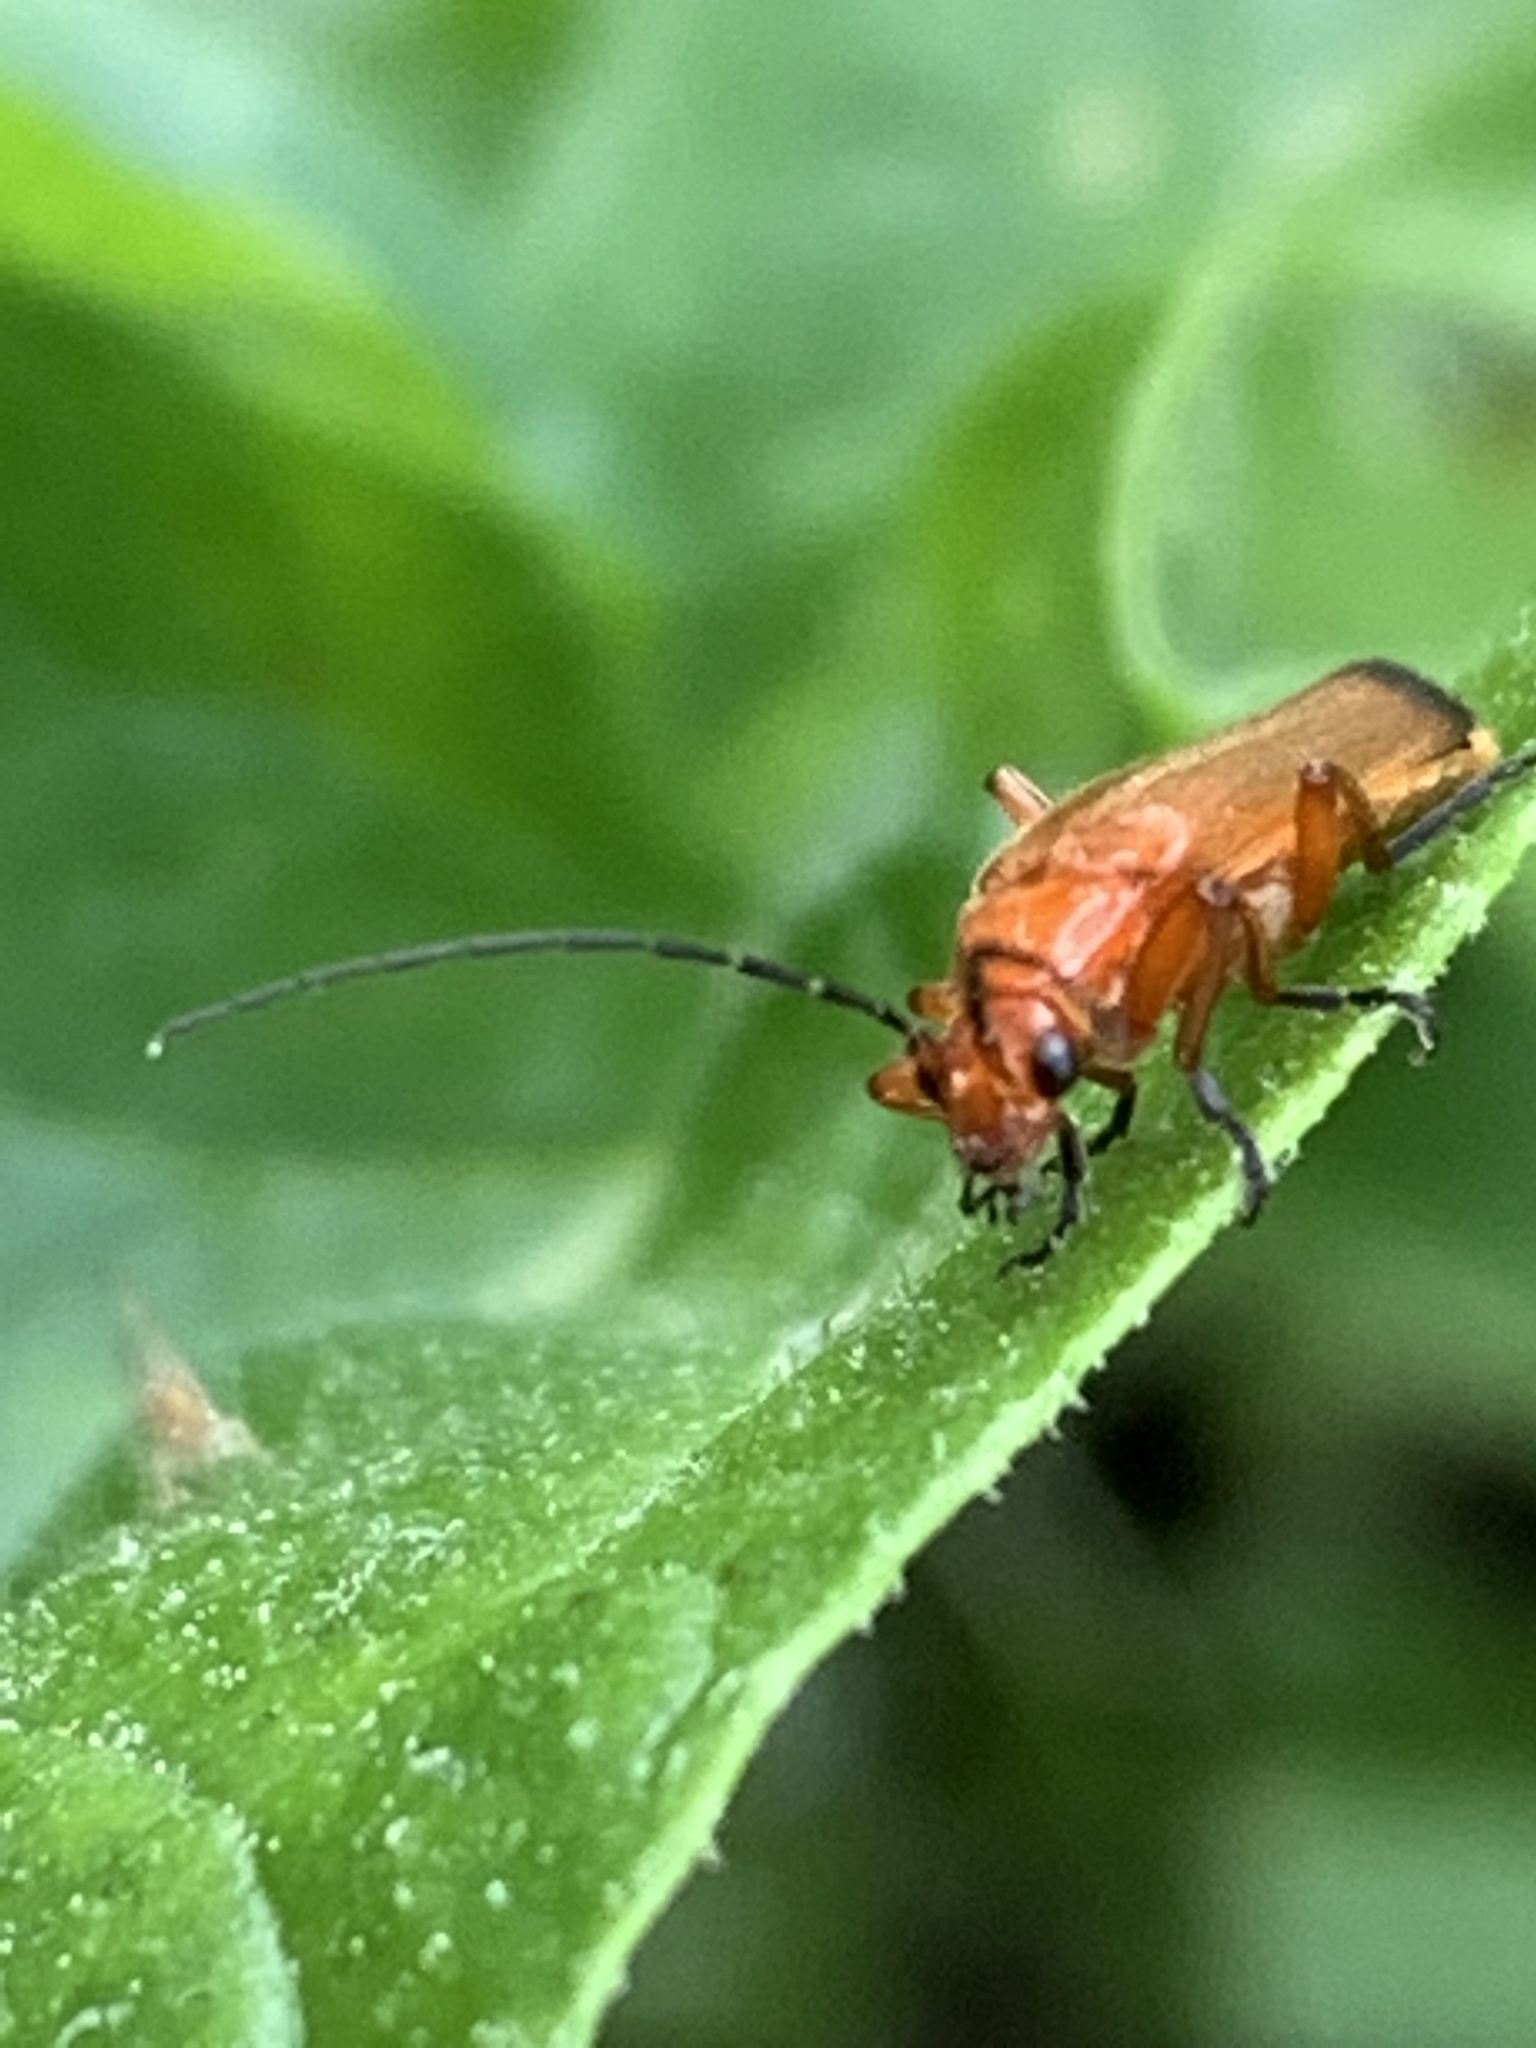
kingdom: Animalia
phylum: Arthropoda
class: Insecta
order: Coleoptera
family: Cantharidae
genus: Rhagonycha
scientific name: Rhagonycha fulva
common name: Common red soldier beetle
